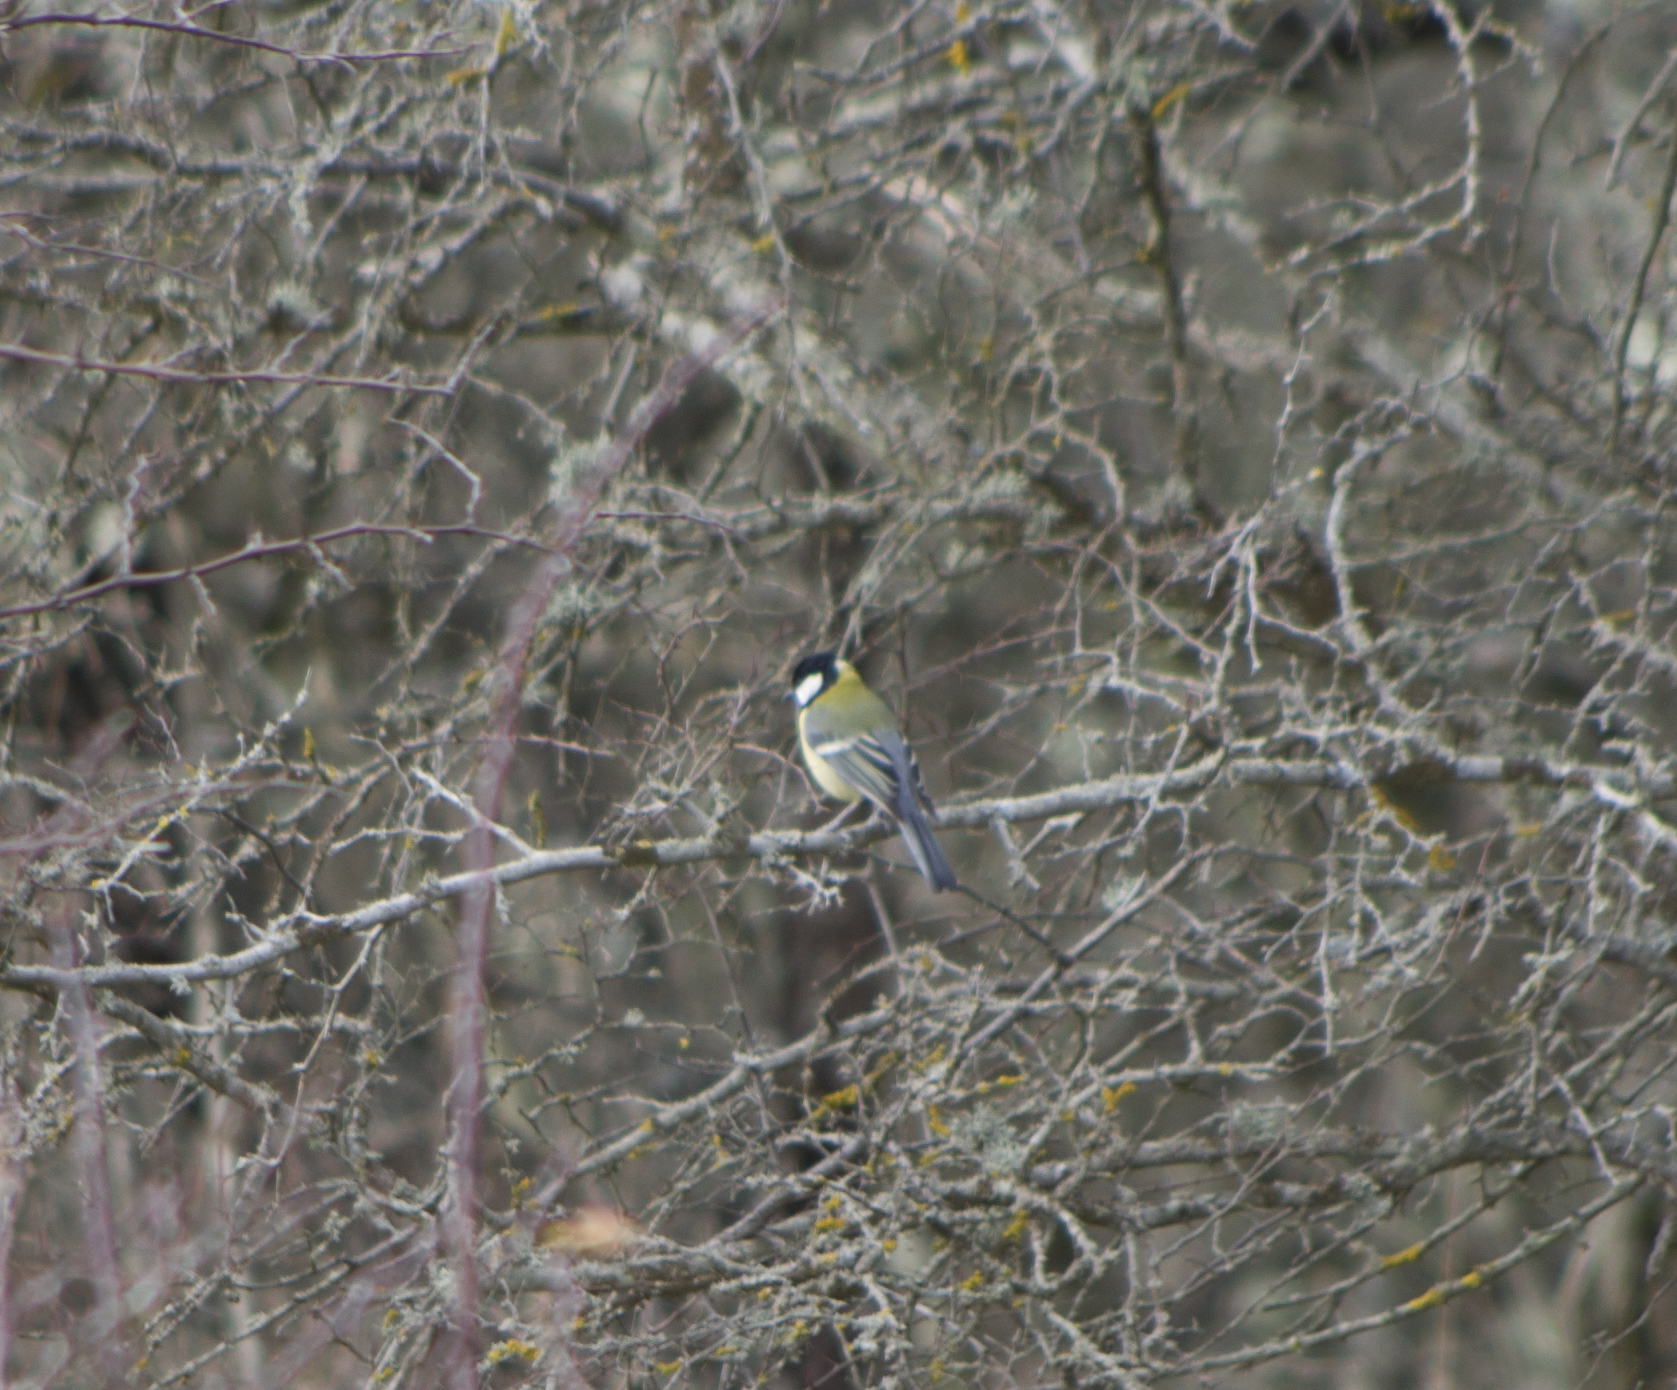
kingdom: Animalia
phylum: Chordata
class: Aves
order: Passeriformes
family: Paridae
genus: Parus
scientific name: Parus major
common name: Great tit
